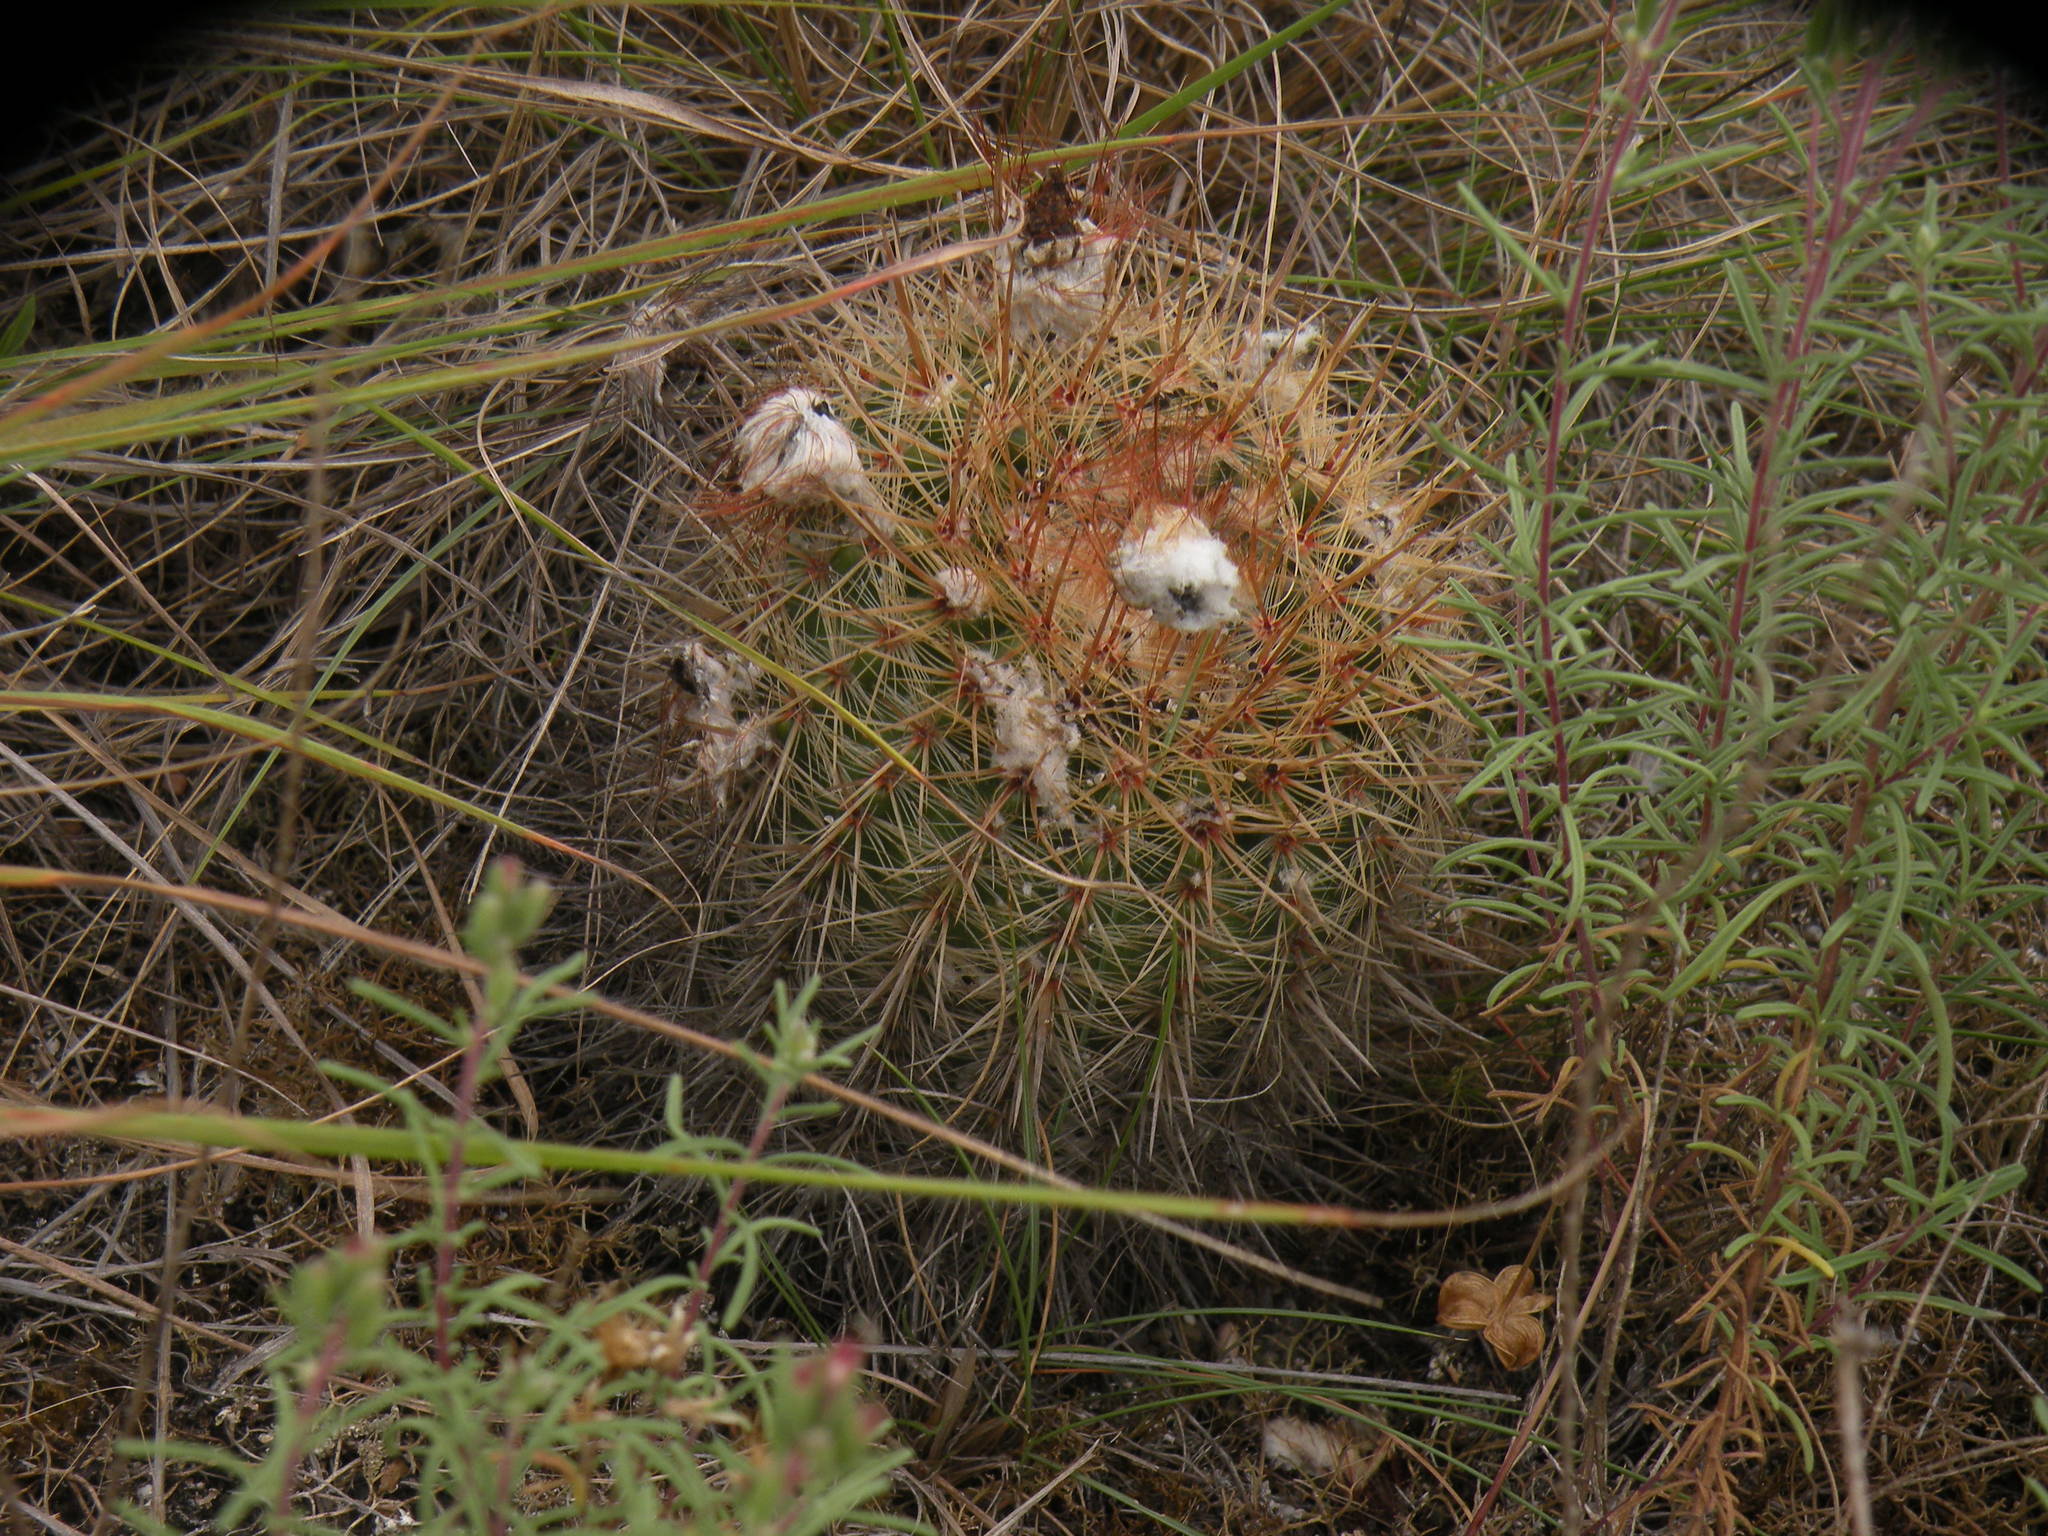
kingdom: Plantae
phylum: Tracheophyta
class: Magnoliopsida
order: Caryophyllales
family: Cactaceae
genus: Parodia
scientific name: Parodia scopa
